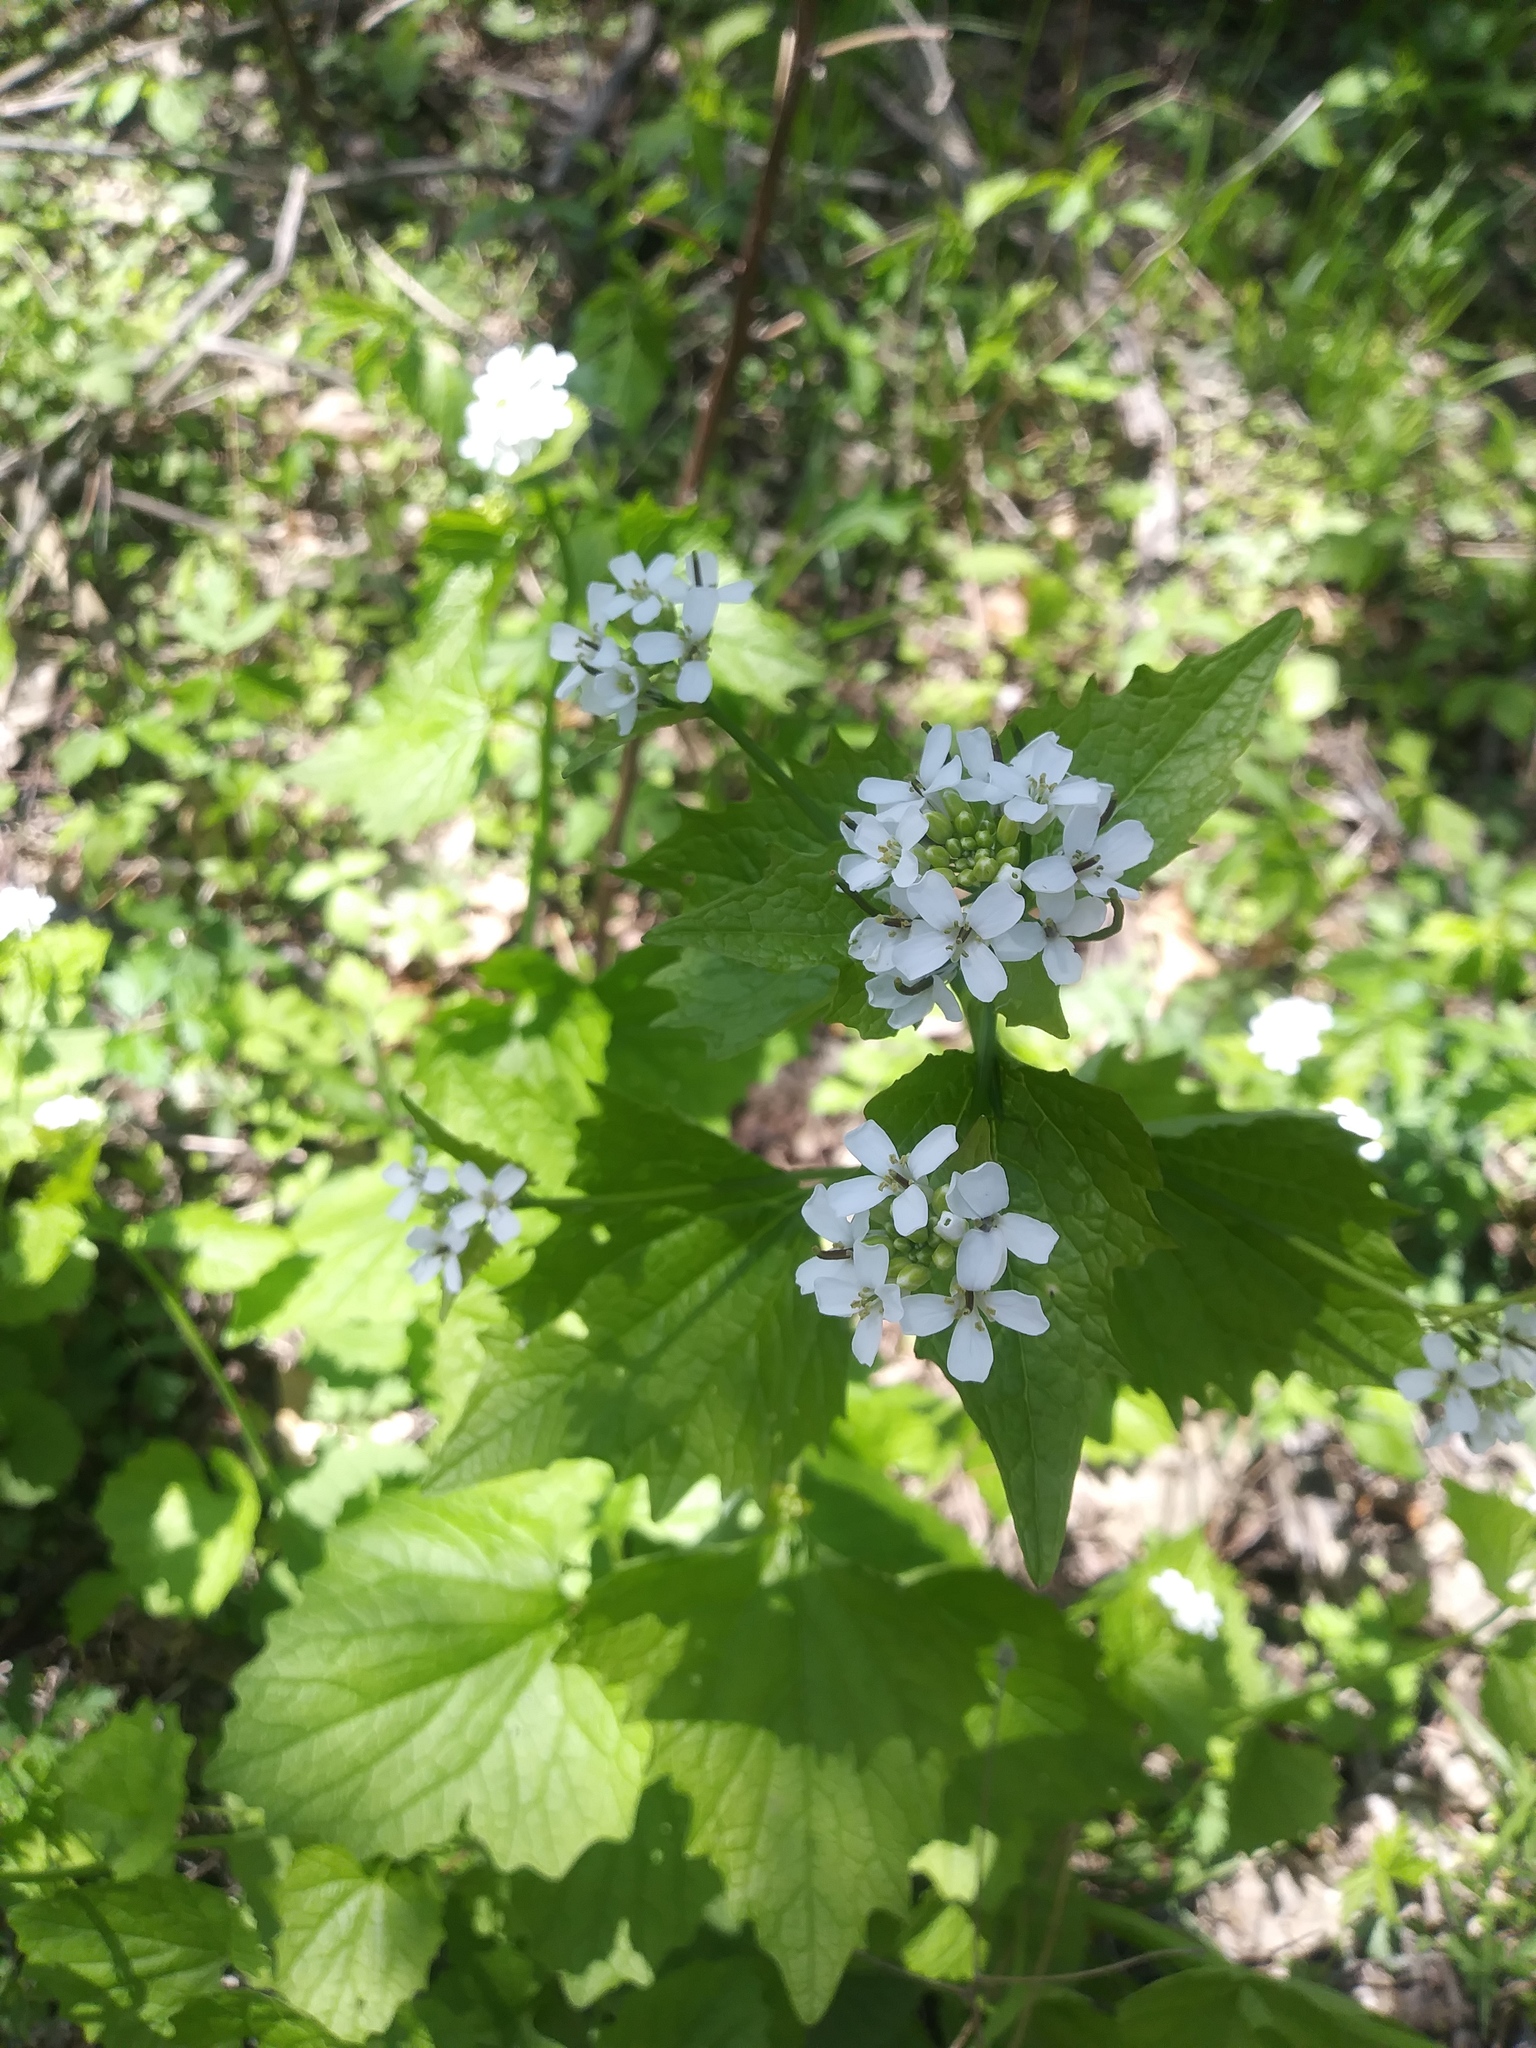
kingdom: Plantae
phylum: Tracheophyta
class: Magnoliopsida
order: Brassicales
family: Brassicaceae
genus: Alliaria
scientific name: Alliaria petiolata
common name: Garlic mustard
